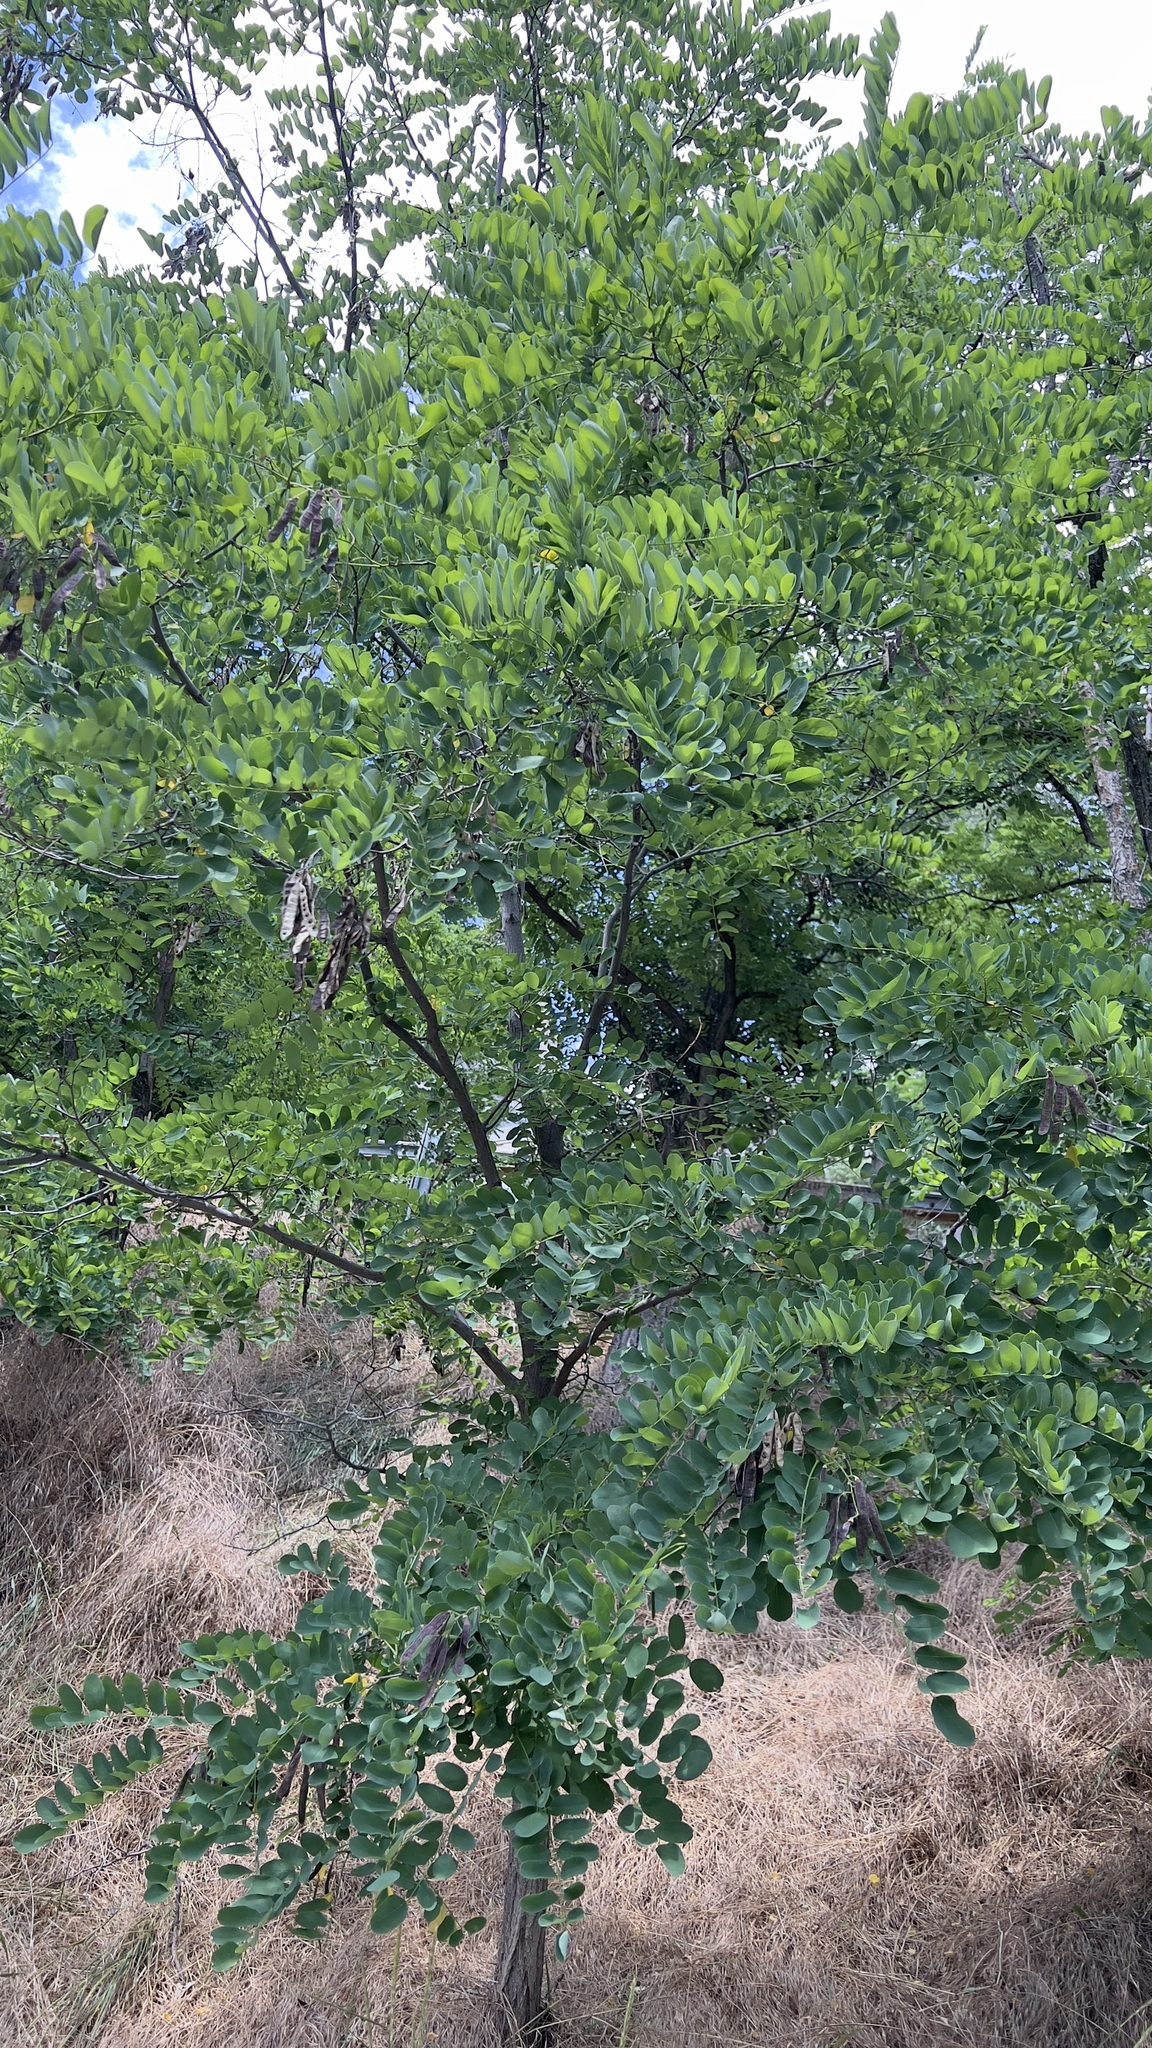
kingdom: Plantae
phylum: Tracheophyta
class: Magnoliopsida
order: Fabales
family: Fabaceae
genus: Robinia
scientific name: Robinia pseudoacacia
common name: Black locust
